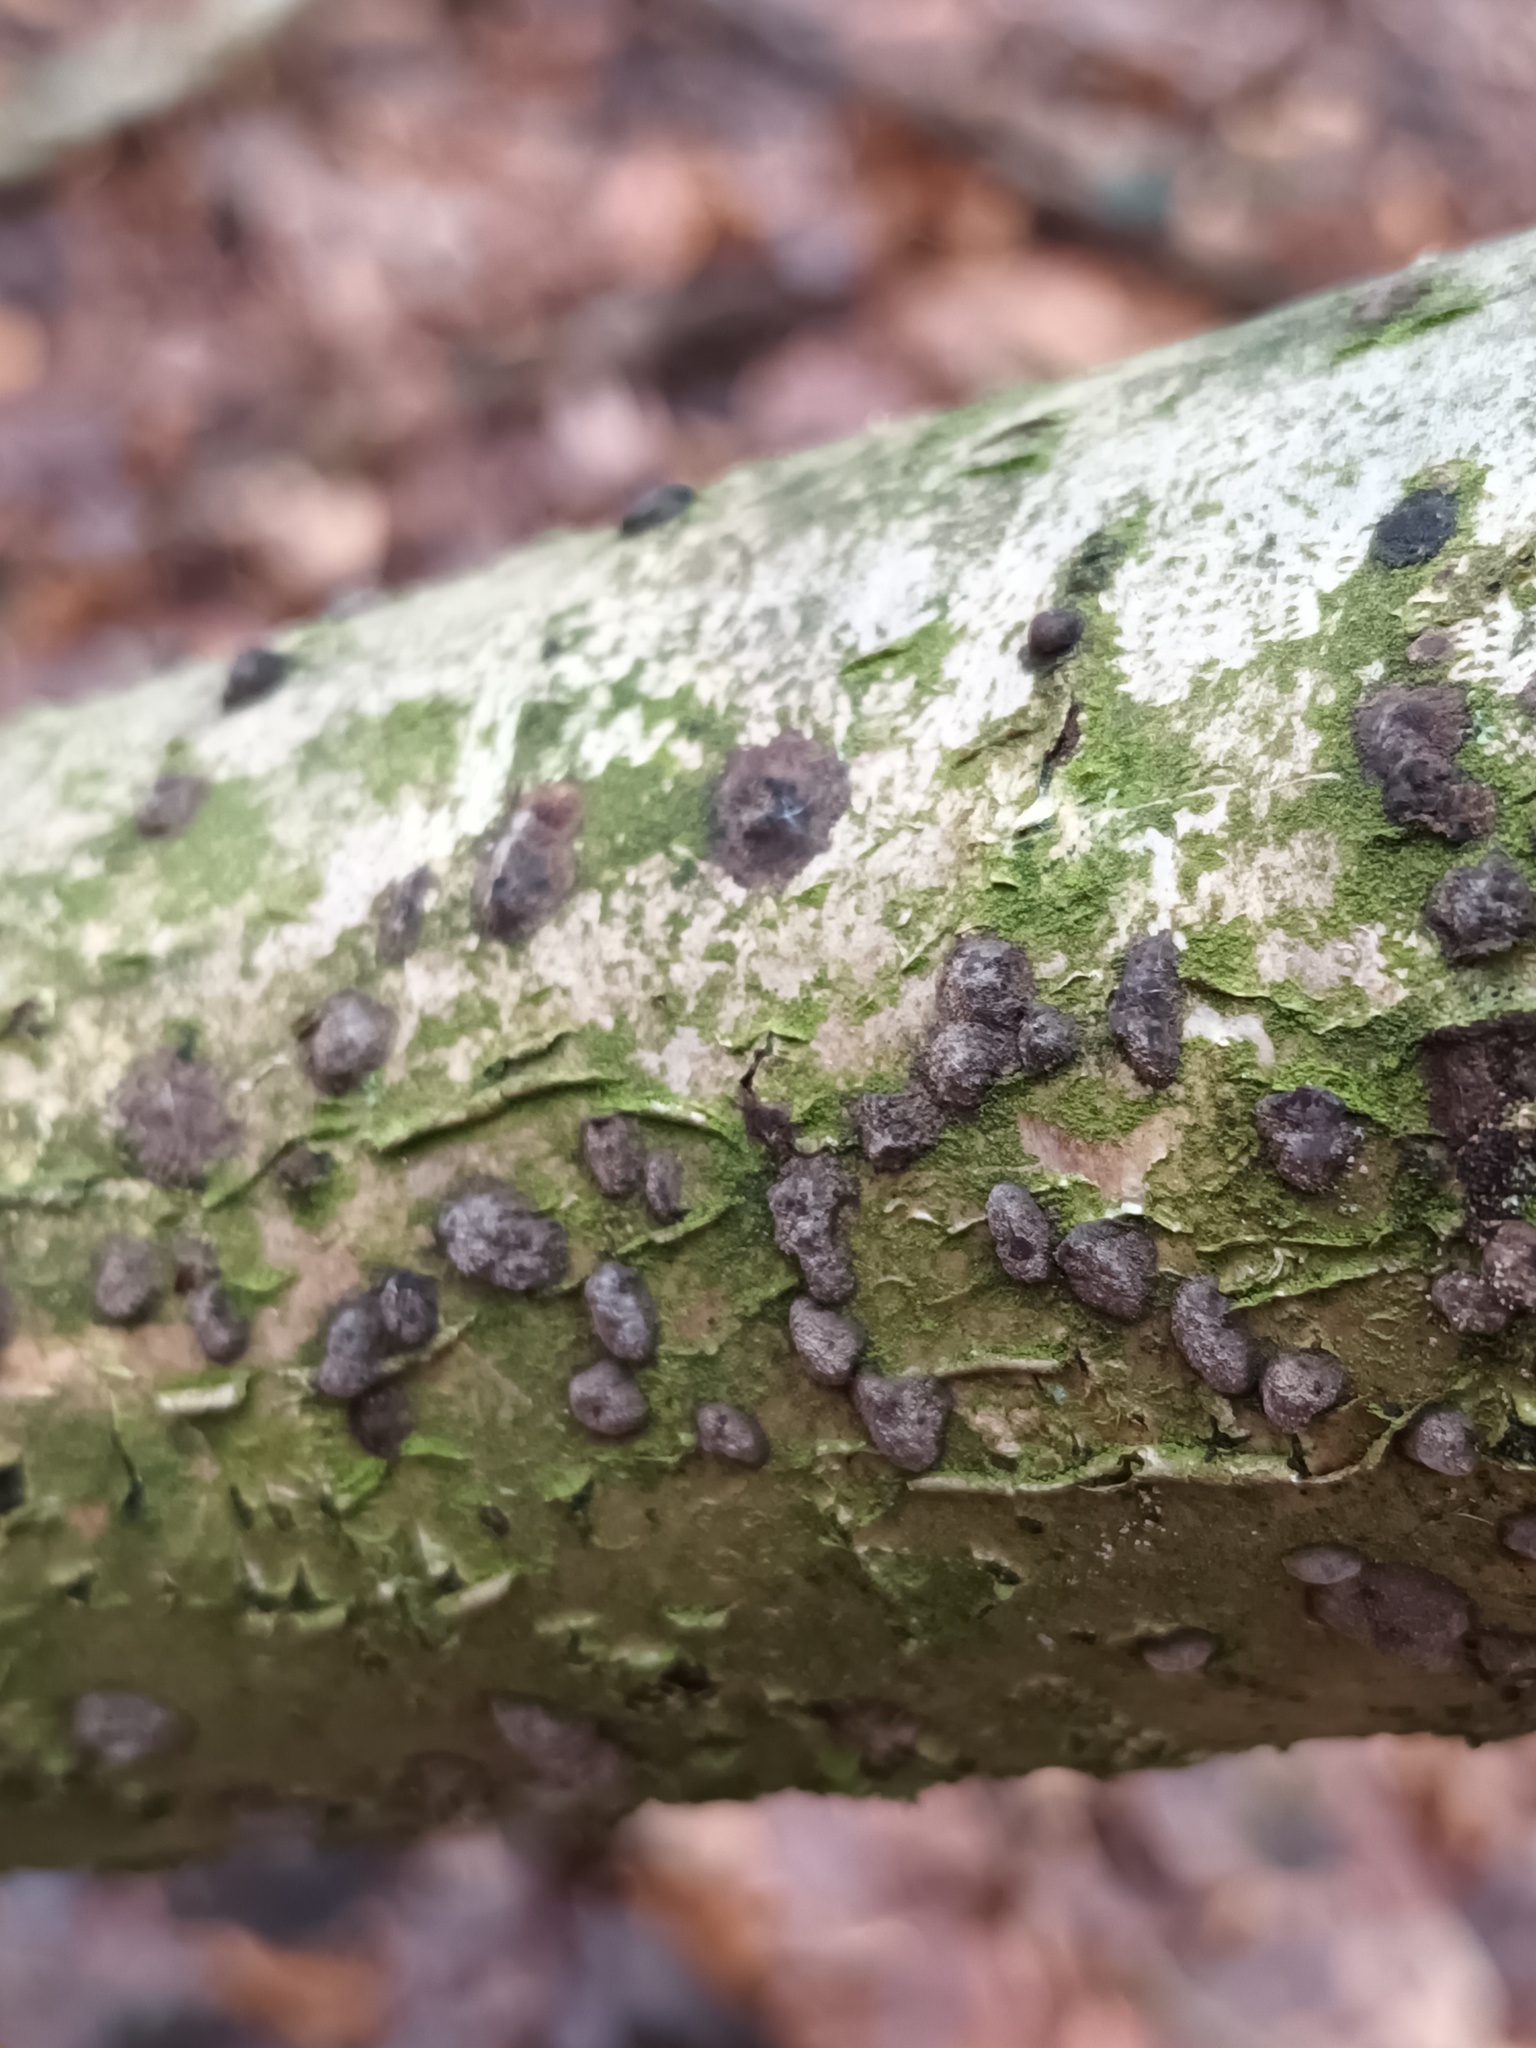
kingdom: Fungi
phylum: Ascomycota
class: Sordariomycetes
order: Xylariales
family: Hypoxylaceae
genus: Hypoxylon
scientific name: Hypoxylon fuscum
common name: Hazel woodwart
